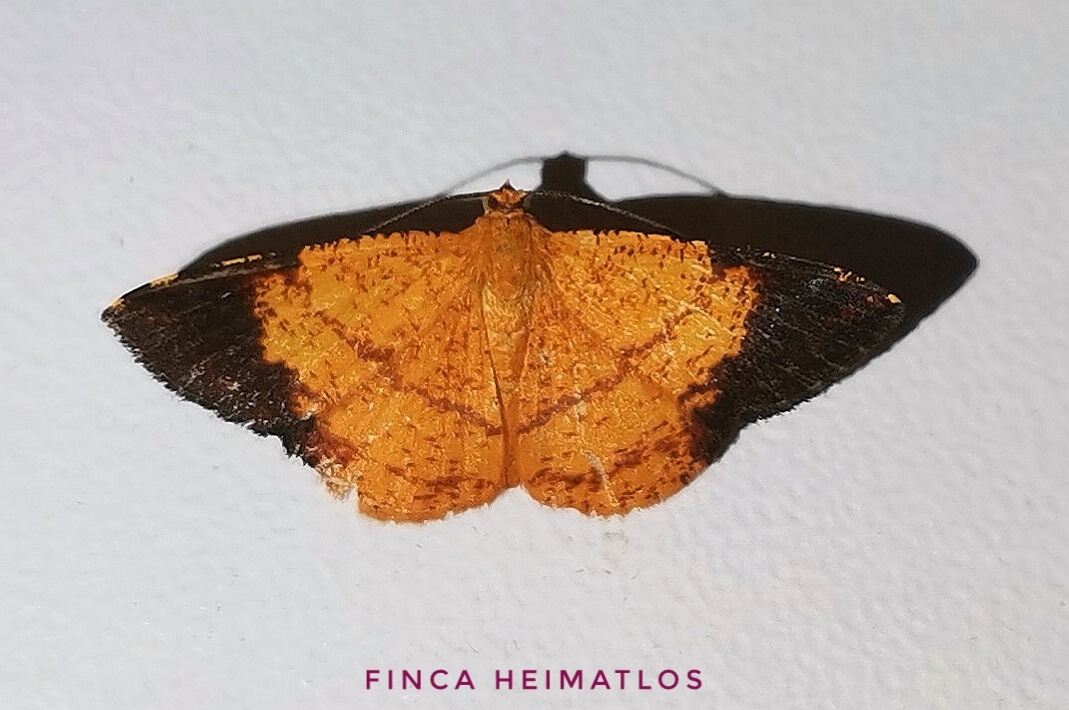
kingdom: Animalia
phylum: Arthropoda
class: Insecta
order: Lepidoptera
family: Geometridae
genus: Pyrinia
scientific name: Pyrinia nigrapicalis
